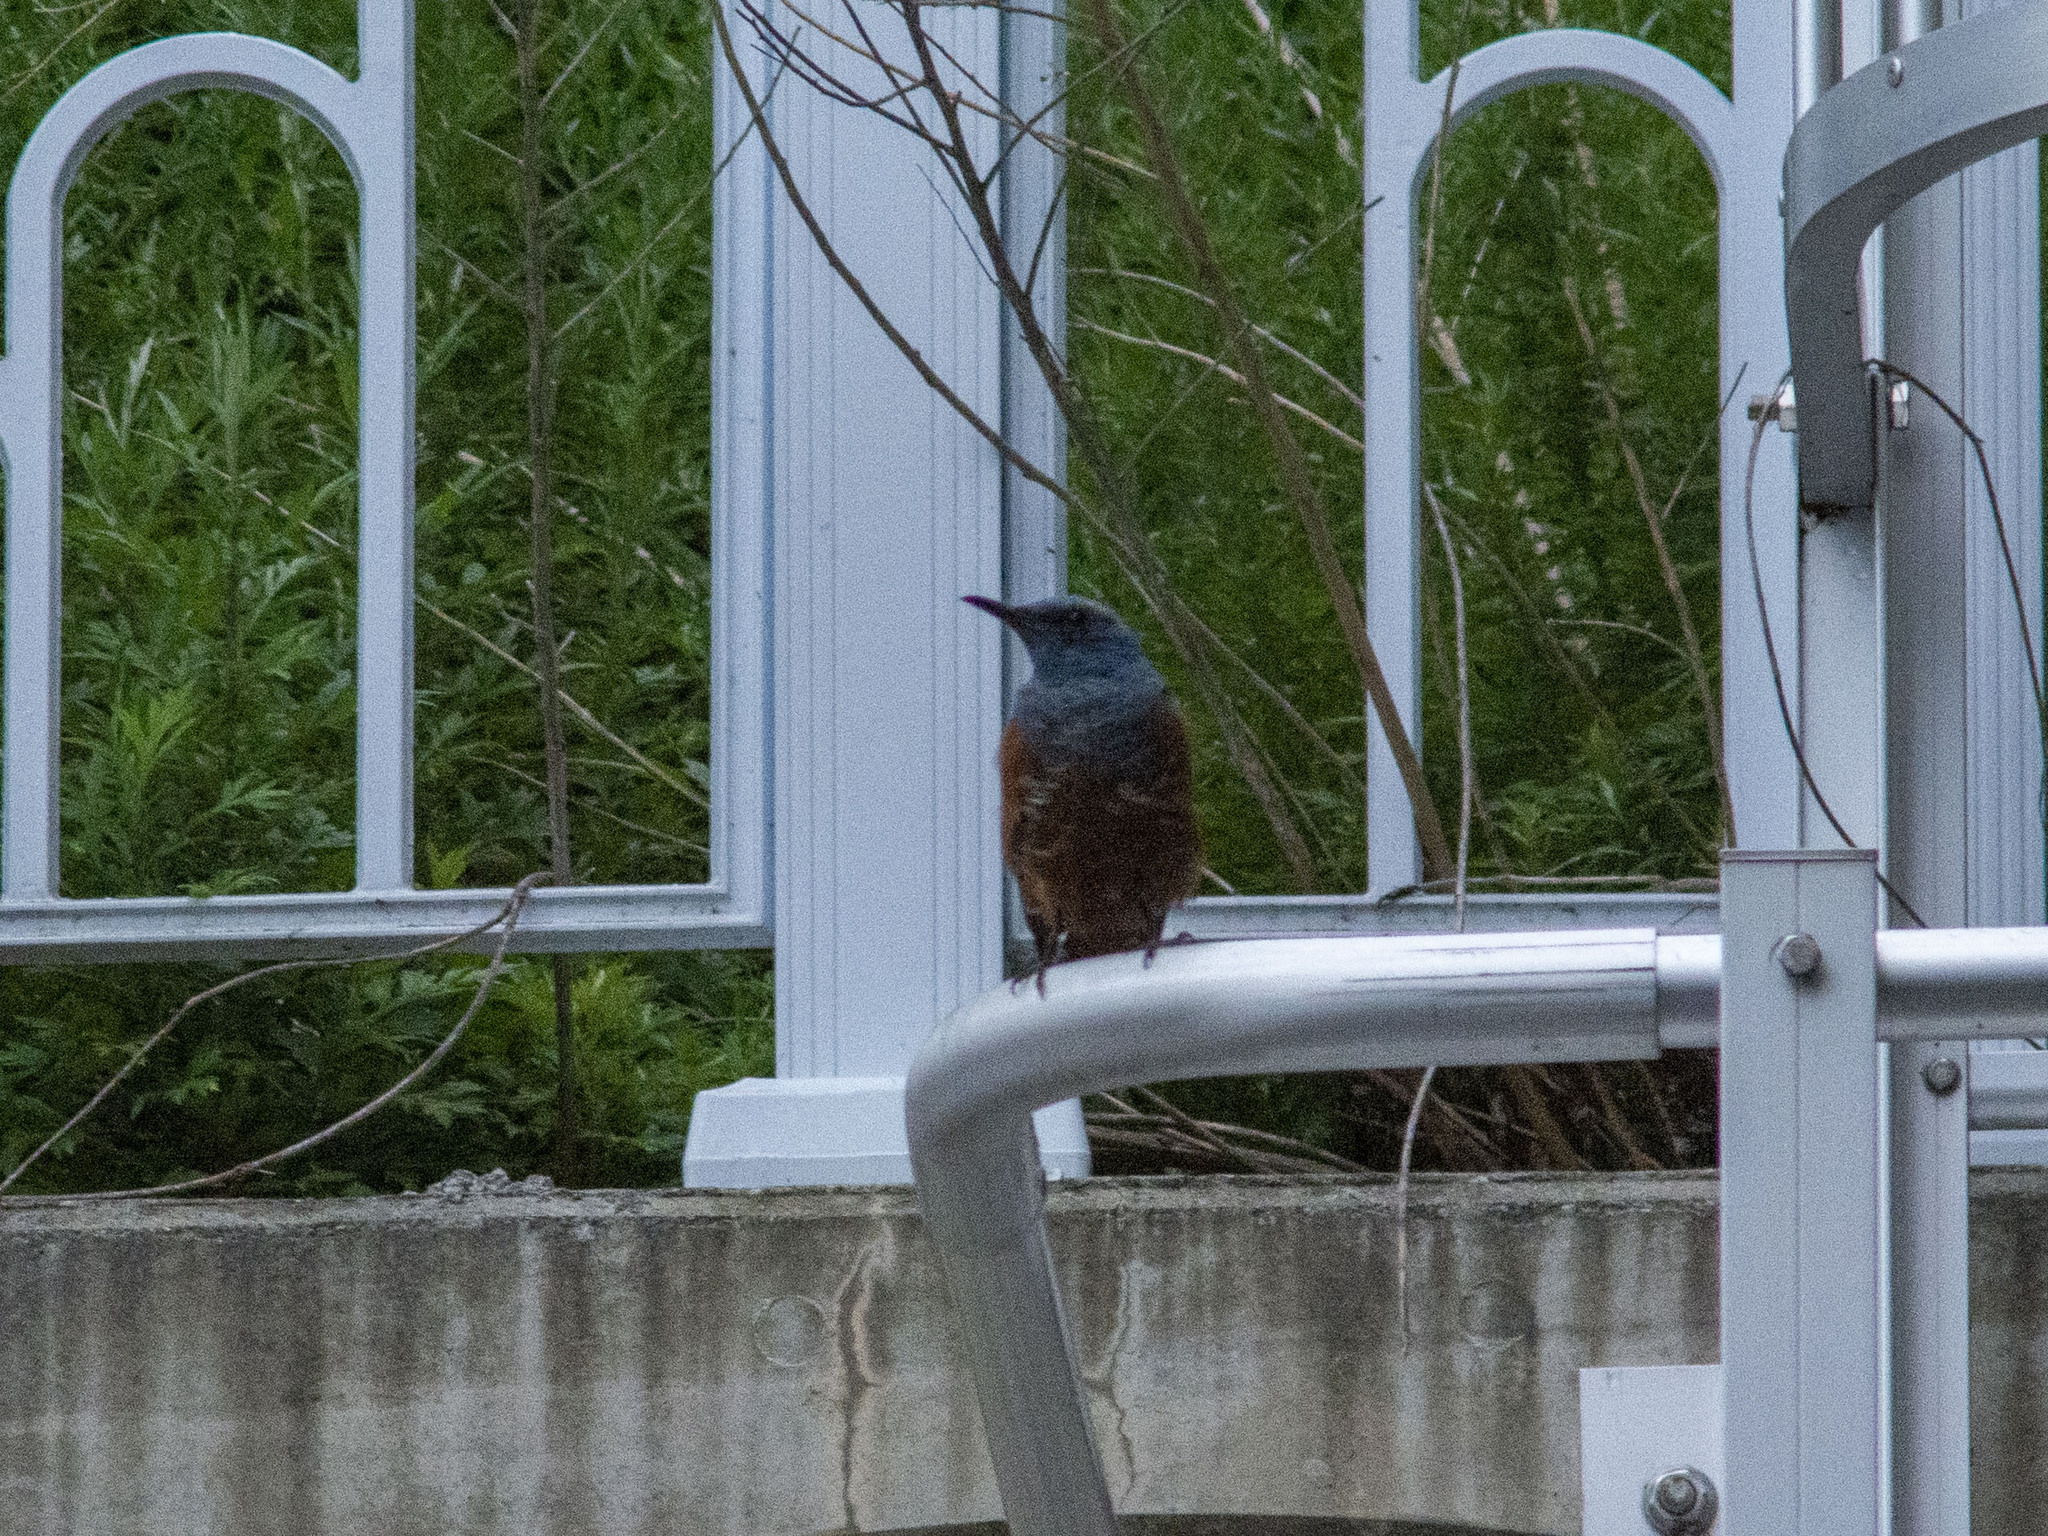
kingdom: Animalia
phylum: Chordata
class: Aves
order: Passeriformes
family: Muscicapidae
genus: Monticola
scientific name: Monticola solitarius
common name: Blue rock thrush
